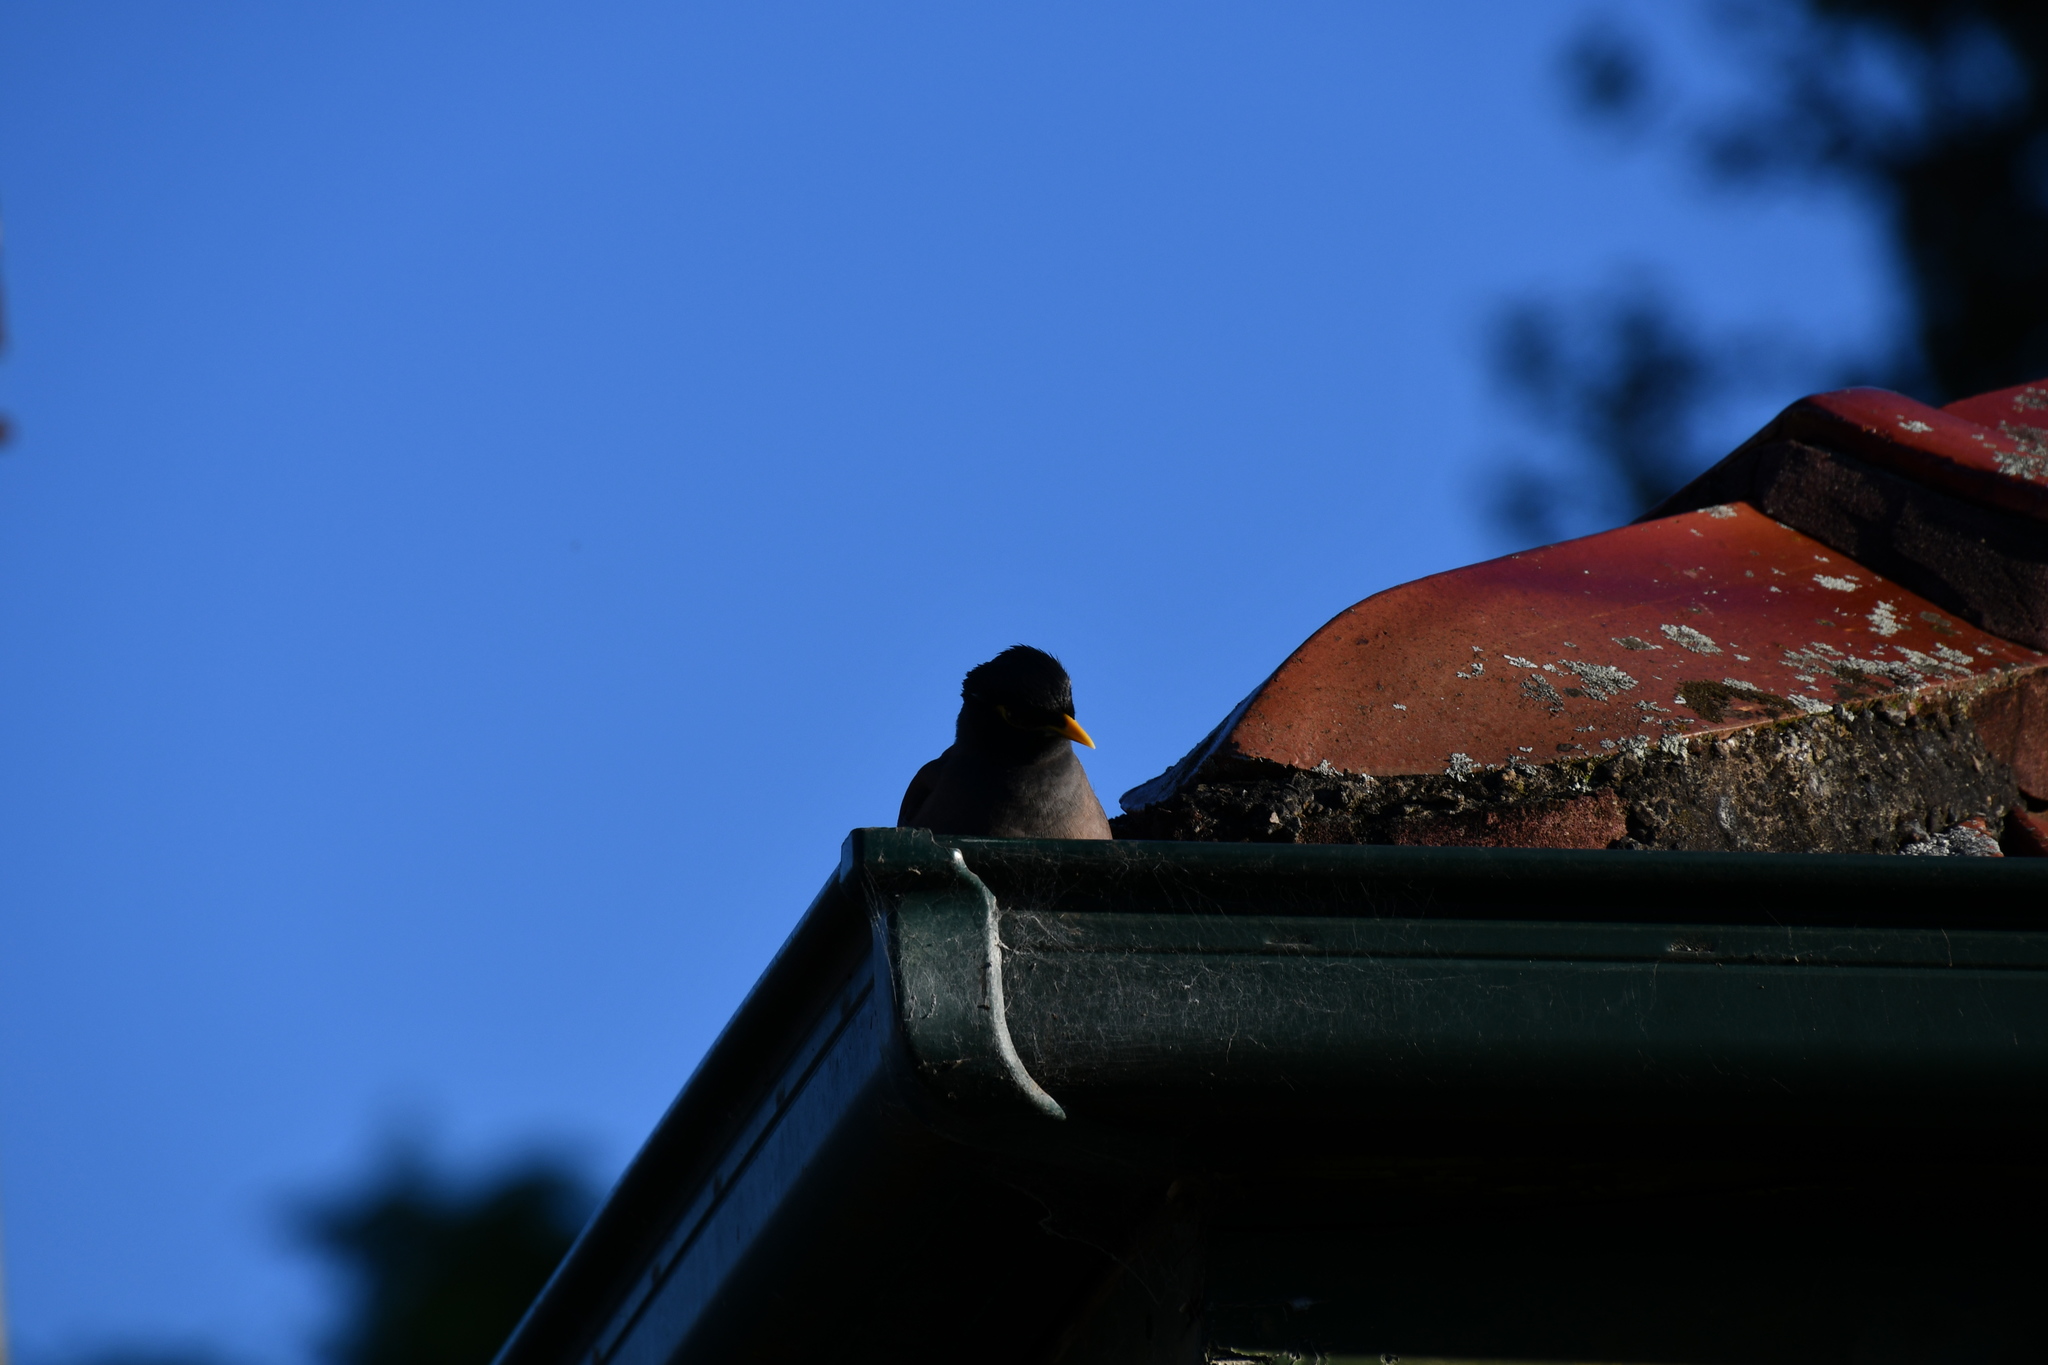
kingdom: Animalia
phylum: Chordata
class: Aves
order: Passeriformes
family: Sturnidae
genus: Acridotheres
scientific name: Acridotheres tristis
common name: Common myna
